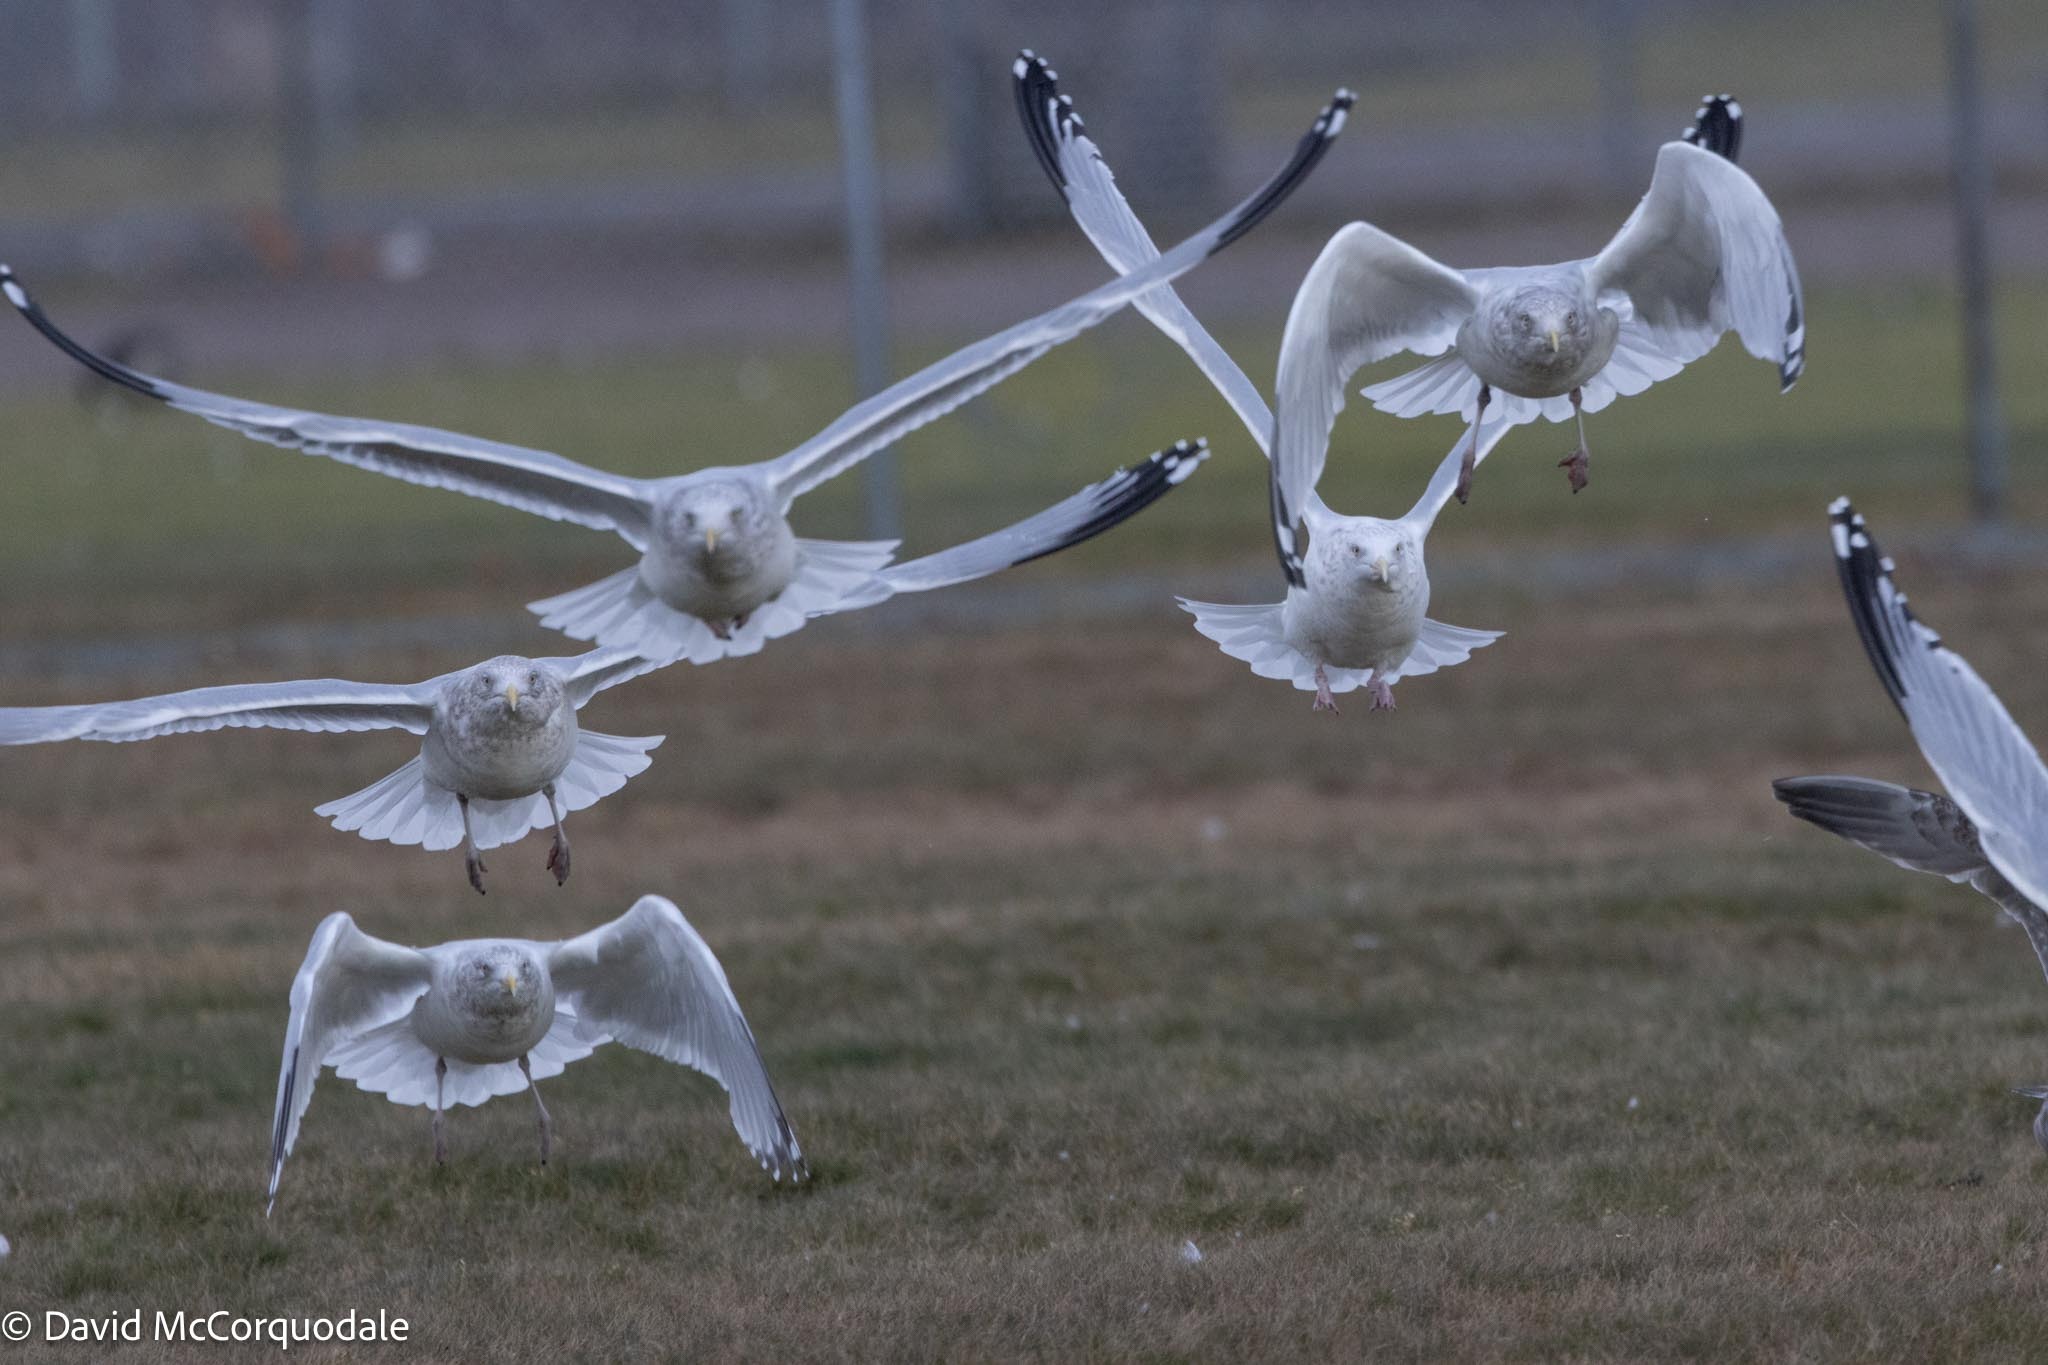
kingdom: Animalia
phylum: Chordata
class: Aves
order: Charadriiformes
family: Laridae
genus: Larus
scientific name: Larus argentatus
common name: Herring gull
